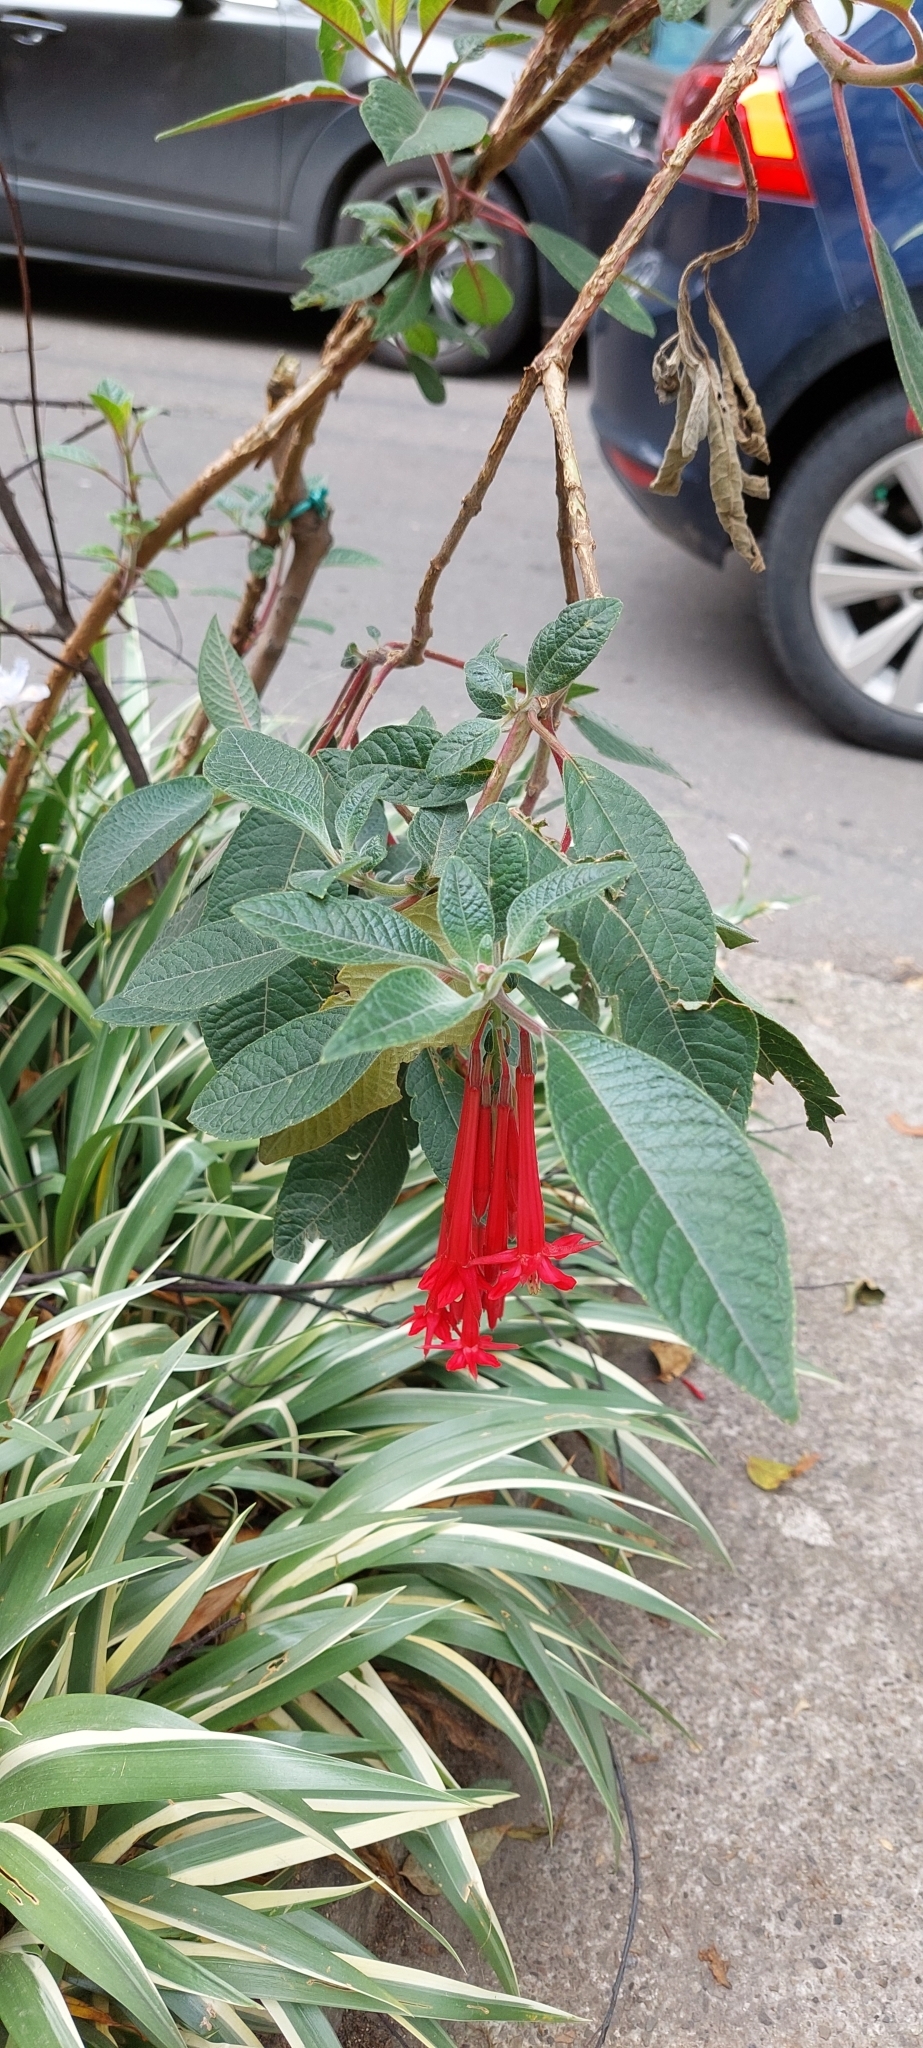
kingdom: Plantae
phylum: Tracheophyta
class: Magnoliopsida
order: Myrtales
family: Onagraceae
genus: Fuchsia
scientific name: Fuchsia boliviana
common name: Bolivian fuchsia
